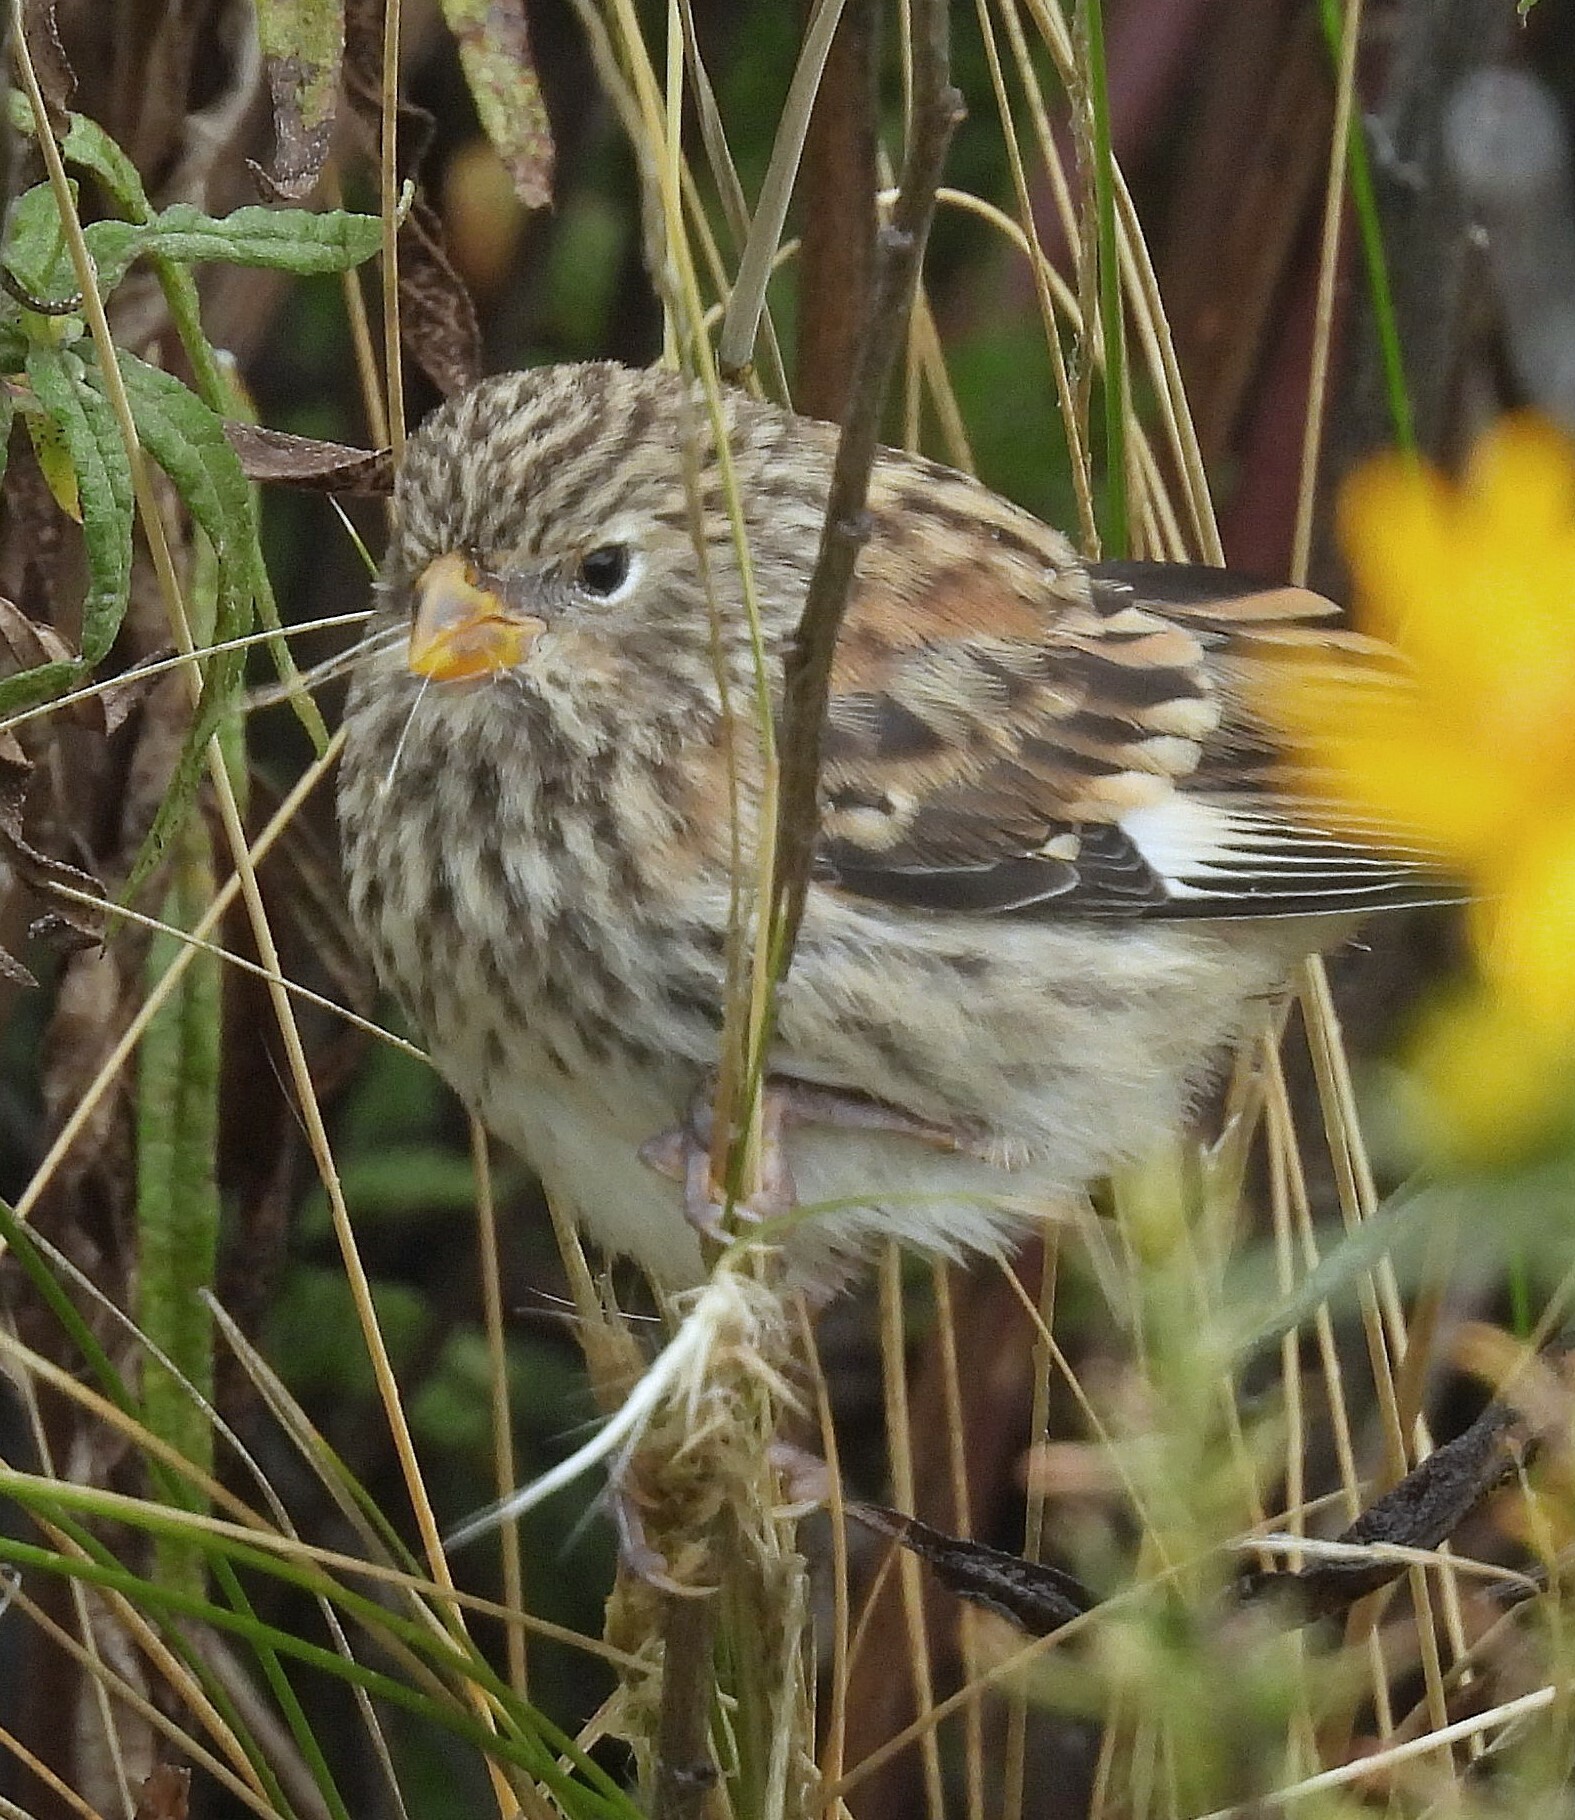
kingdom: Animalia
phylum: Chordata
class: Aves
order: Passeriformes
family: Thraupidae
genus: Catamenia
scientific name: Catamenia analis
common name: Band-tailed seedeater
